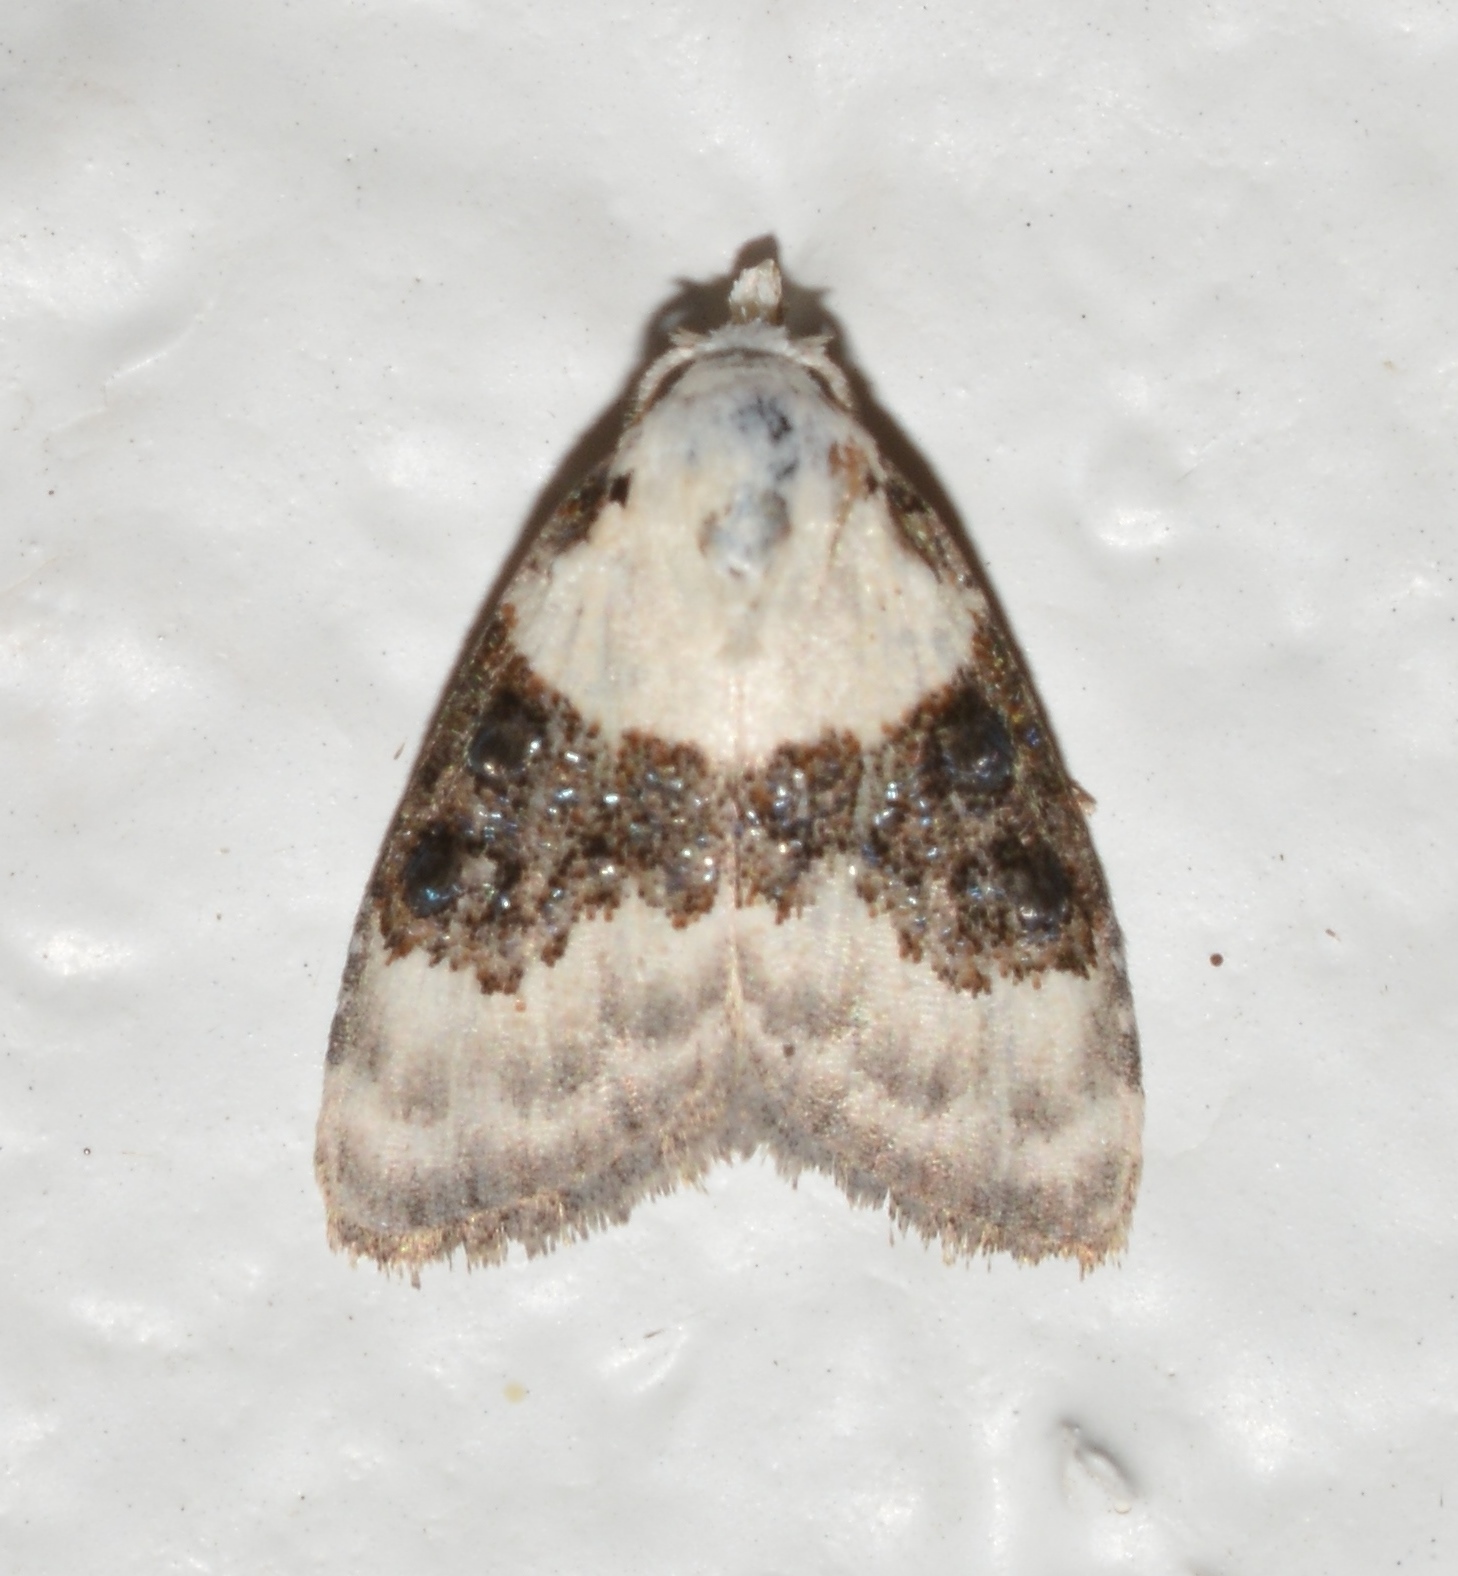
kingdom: Animalia
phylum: Arthropoda
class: Insecta
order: Lepidoptera
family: Nolidae
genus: Nola
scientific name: Nola pustulata
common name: Sharp-blotched nola moth
